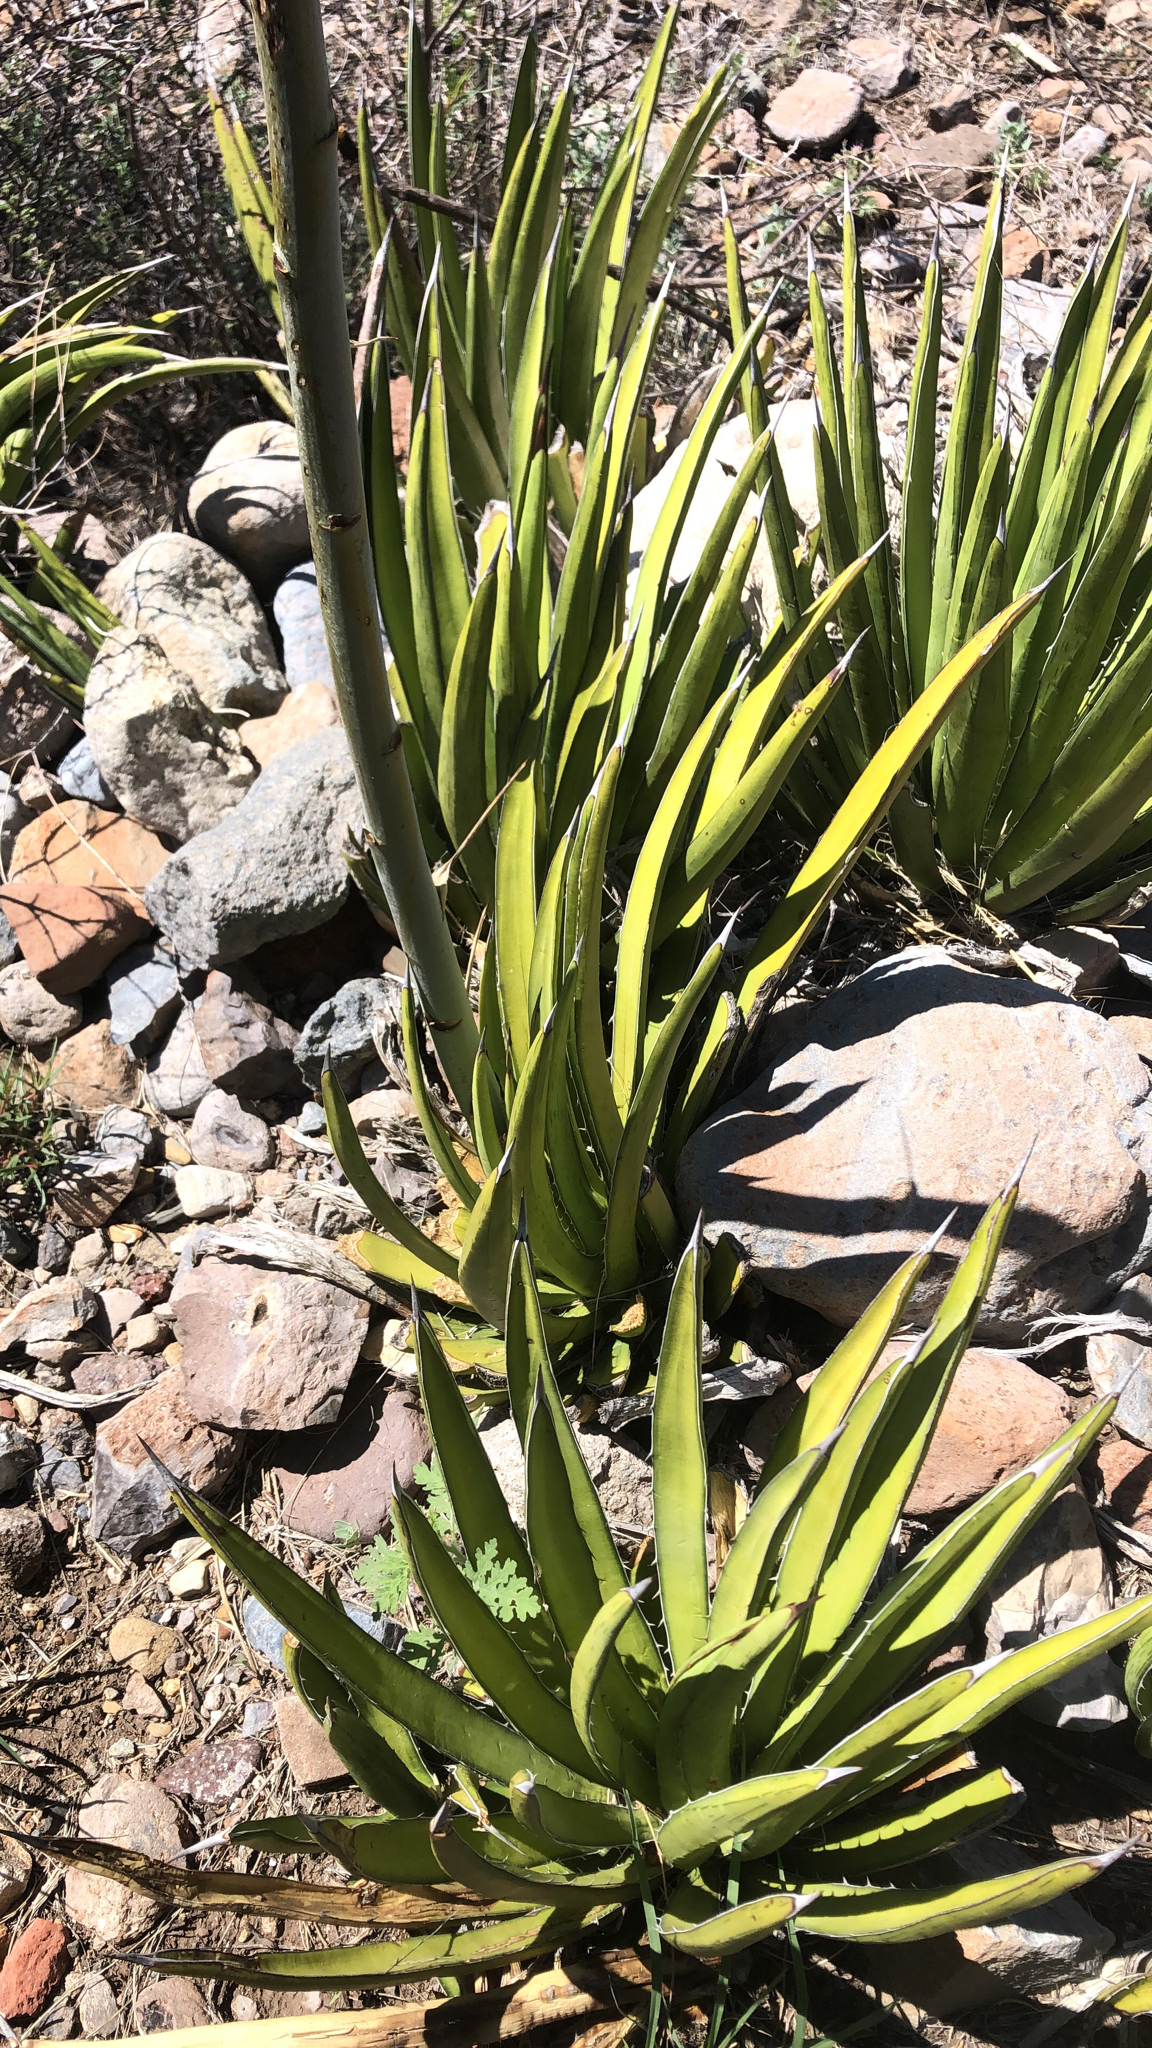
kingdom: Plantae
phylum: Tracheophyta
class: Liliopsida
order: Asparagales
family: Asparagaceae
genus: Agave
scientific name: Agave lechuguilla
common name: Lecheguilla agave
